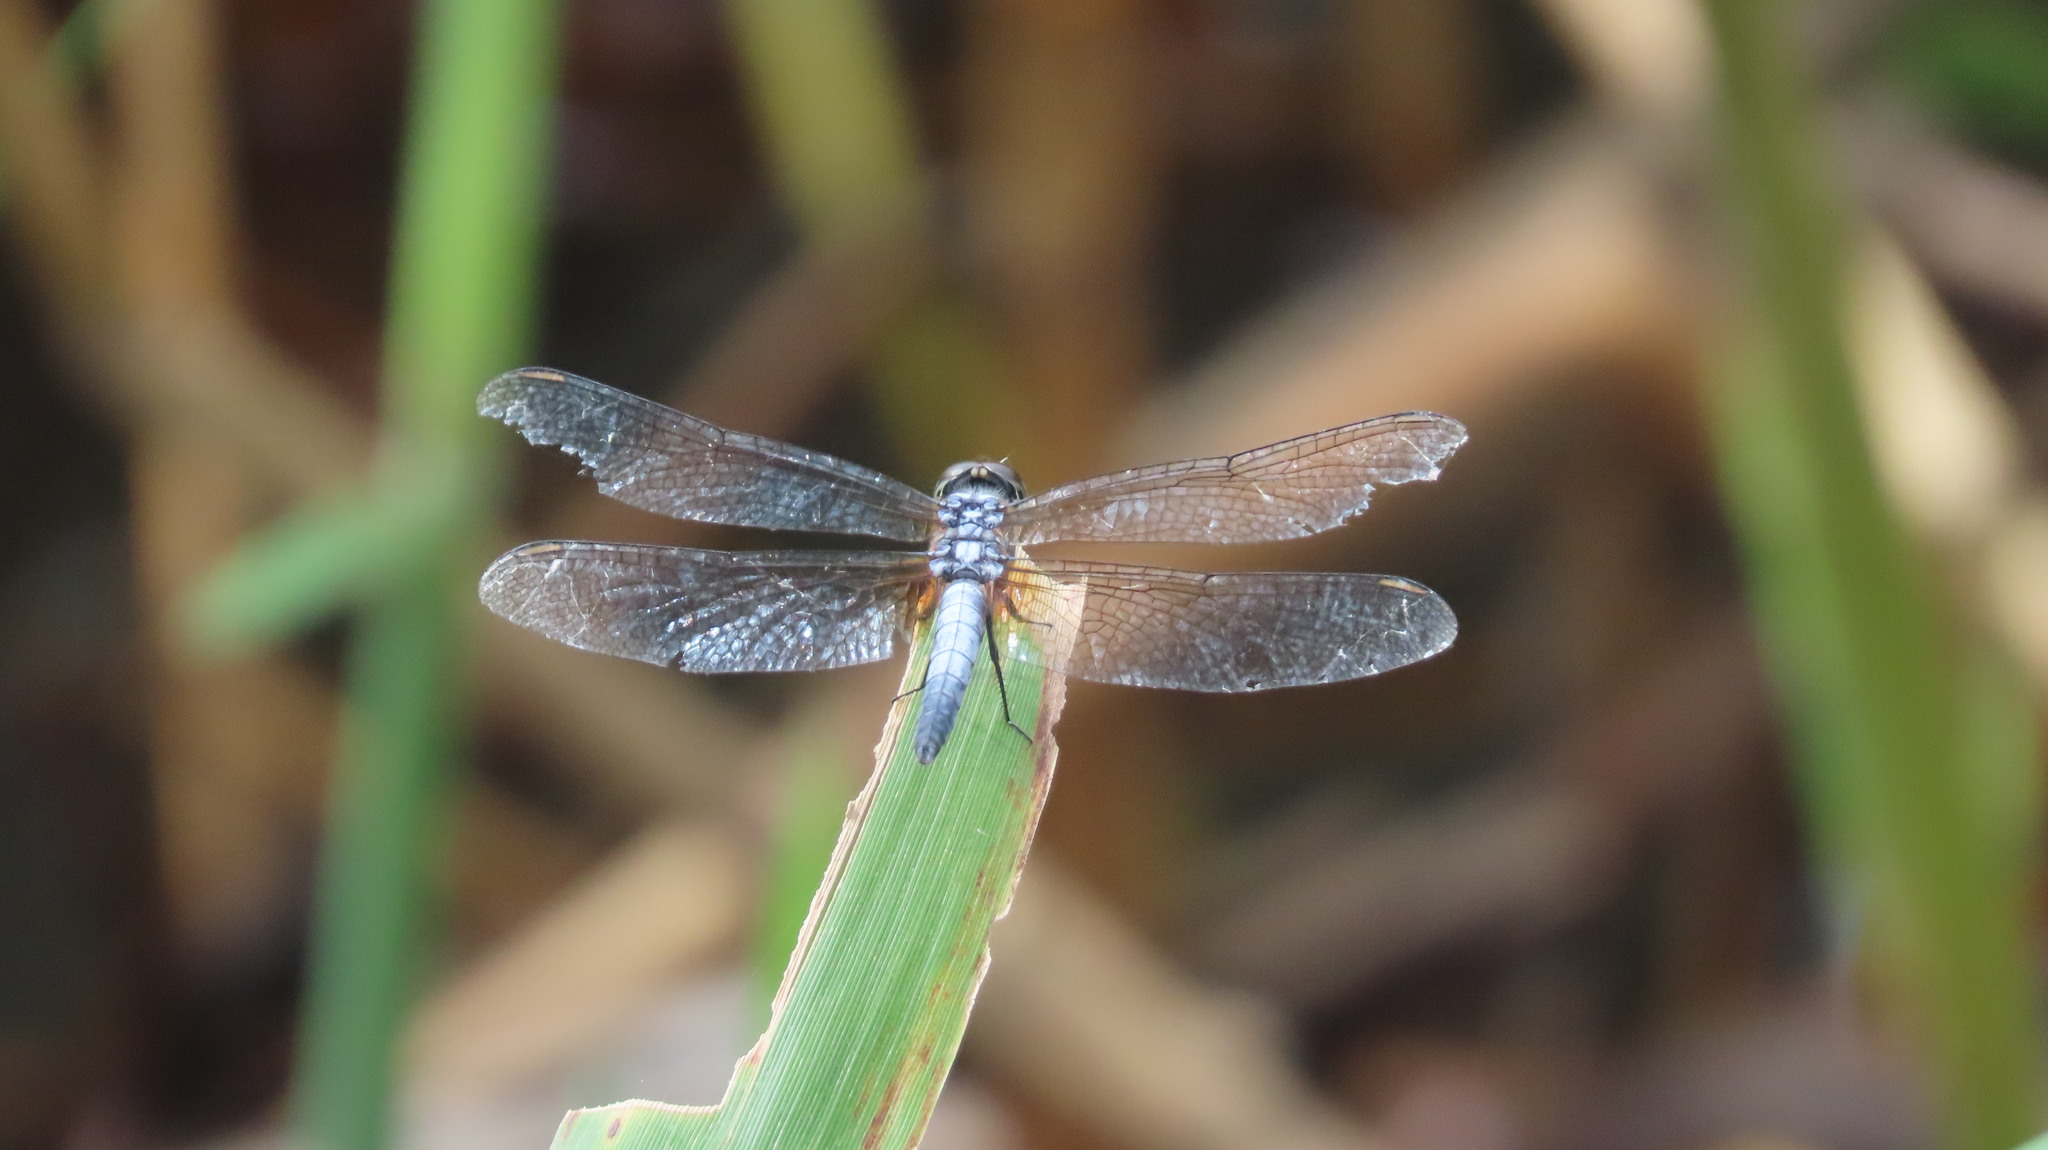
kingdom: Animalia
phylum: Arthropoda
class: Insecta
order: Odonata
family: Libellulidae
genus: Brachydiplax
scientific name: Brachydiplax chalybea
